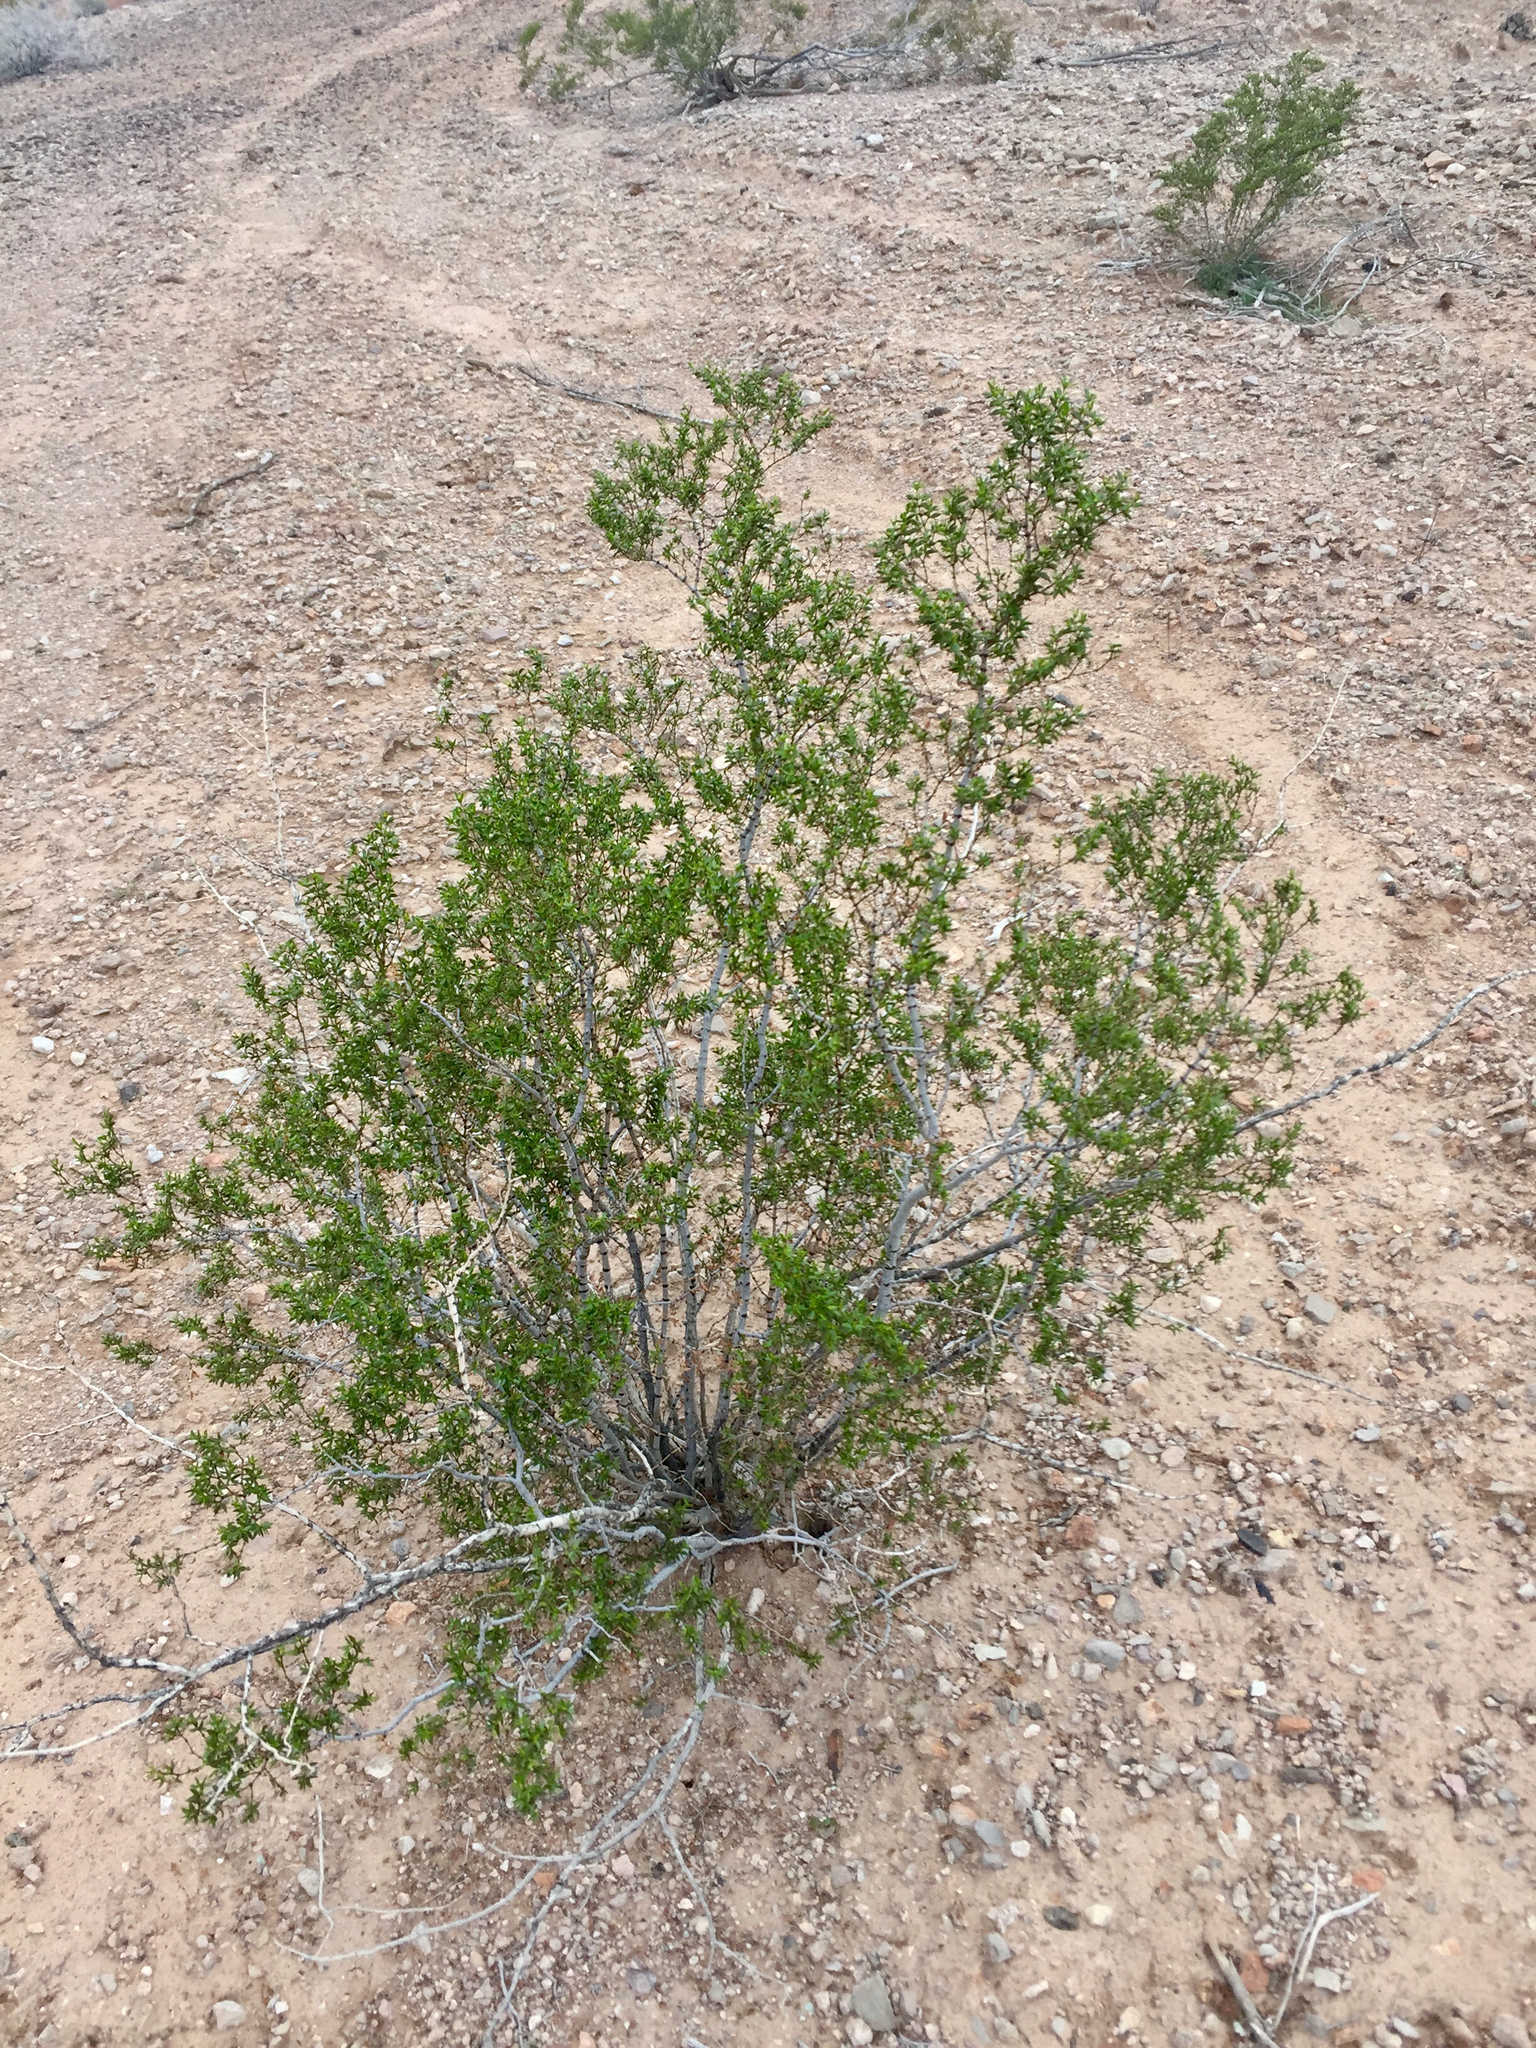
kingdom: Plantae
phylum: Tracheophyta
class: Magnoliopsida
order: Zygophyllales
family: Zygophyllaceae
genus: Larrea
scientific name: Larrea tridentata
